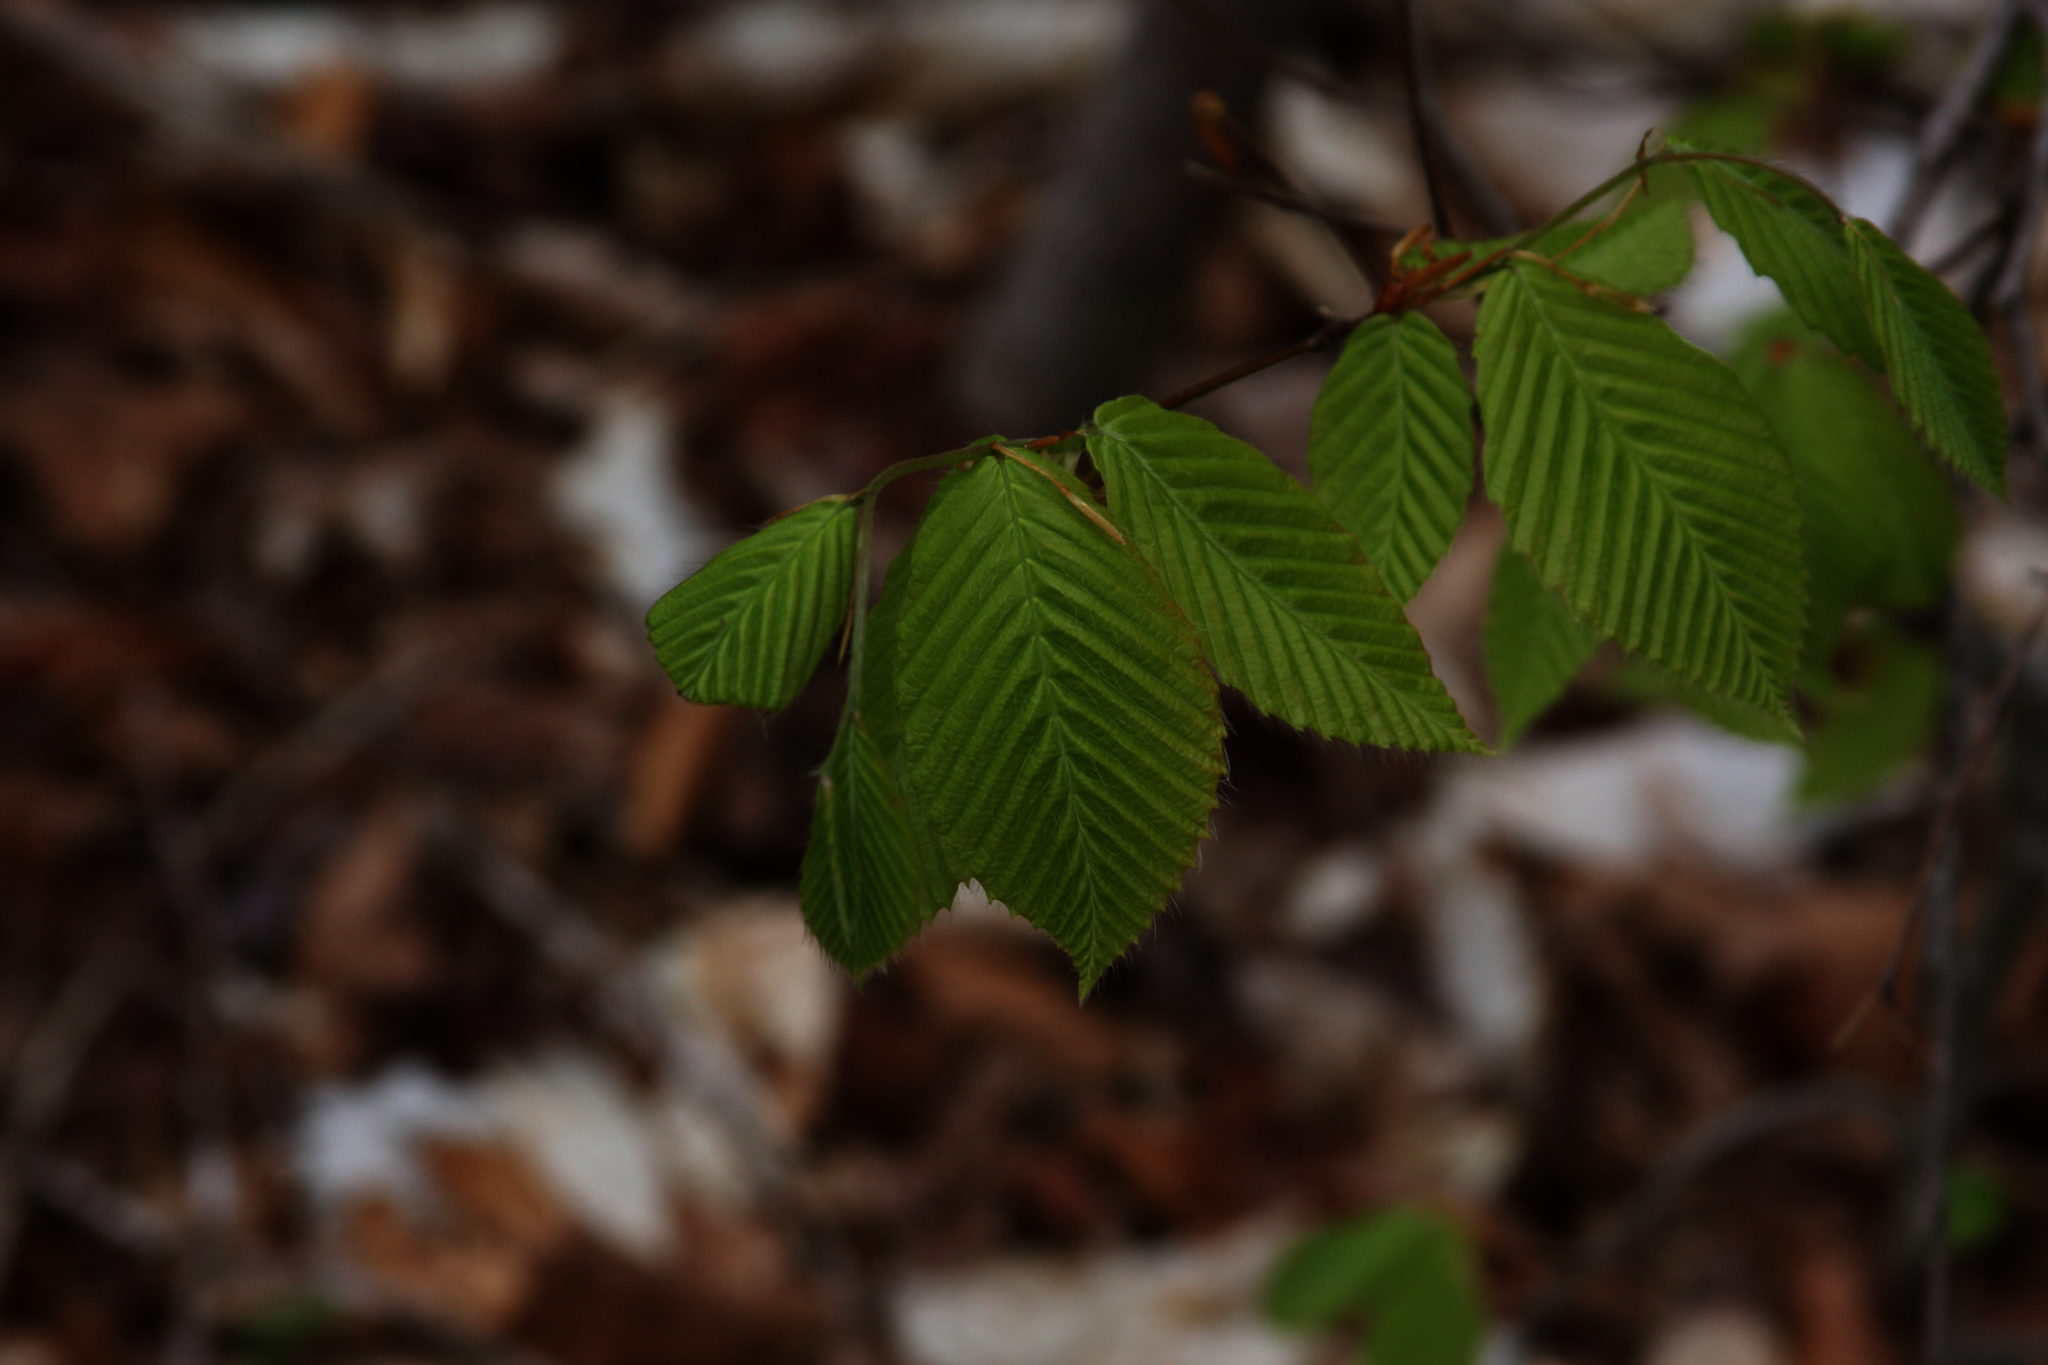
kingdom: Plantae
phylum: Tracheophyta
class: Magnoliopsida
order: Fagales
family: Fagaceae
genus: Fagus
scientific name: Fagus grandifolia
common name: American beech
